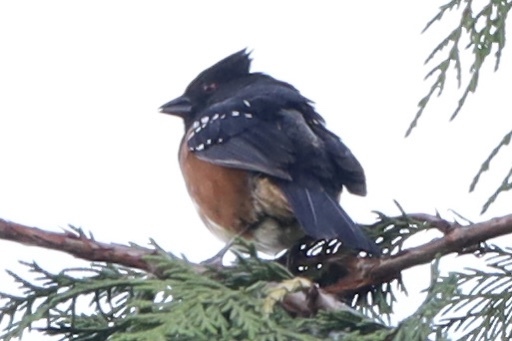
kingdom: Animalia
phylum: Chordata
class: Aves
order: Passeriformes
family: Passerellidae
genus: Pipilo
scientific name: Pipilo maculatus
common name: Spotted towhee
